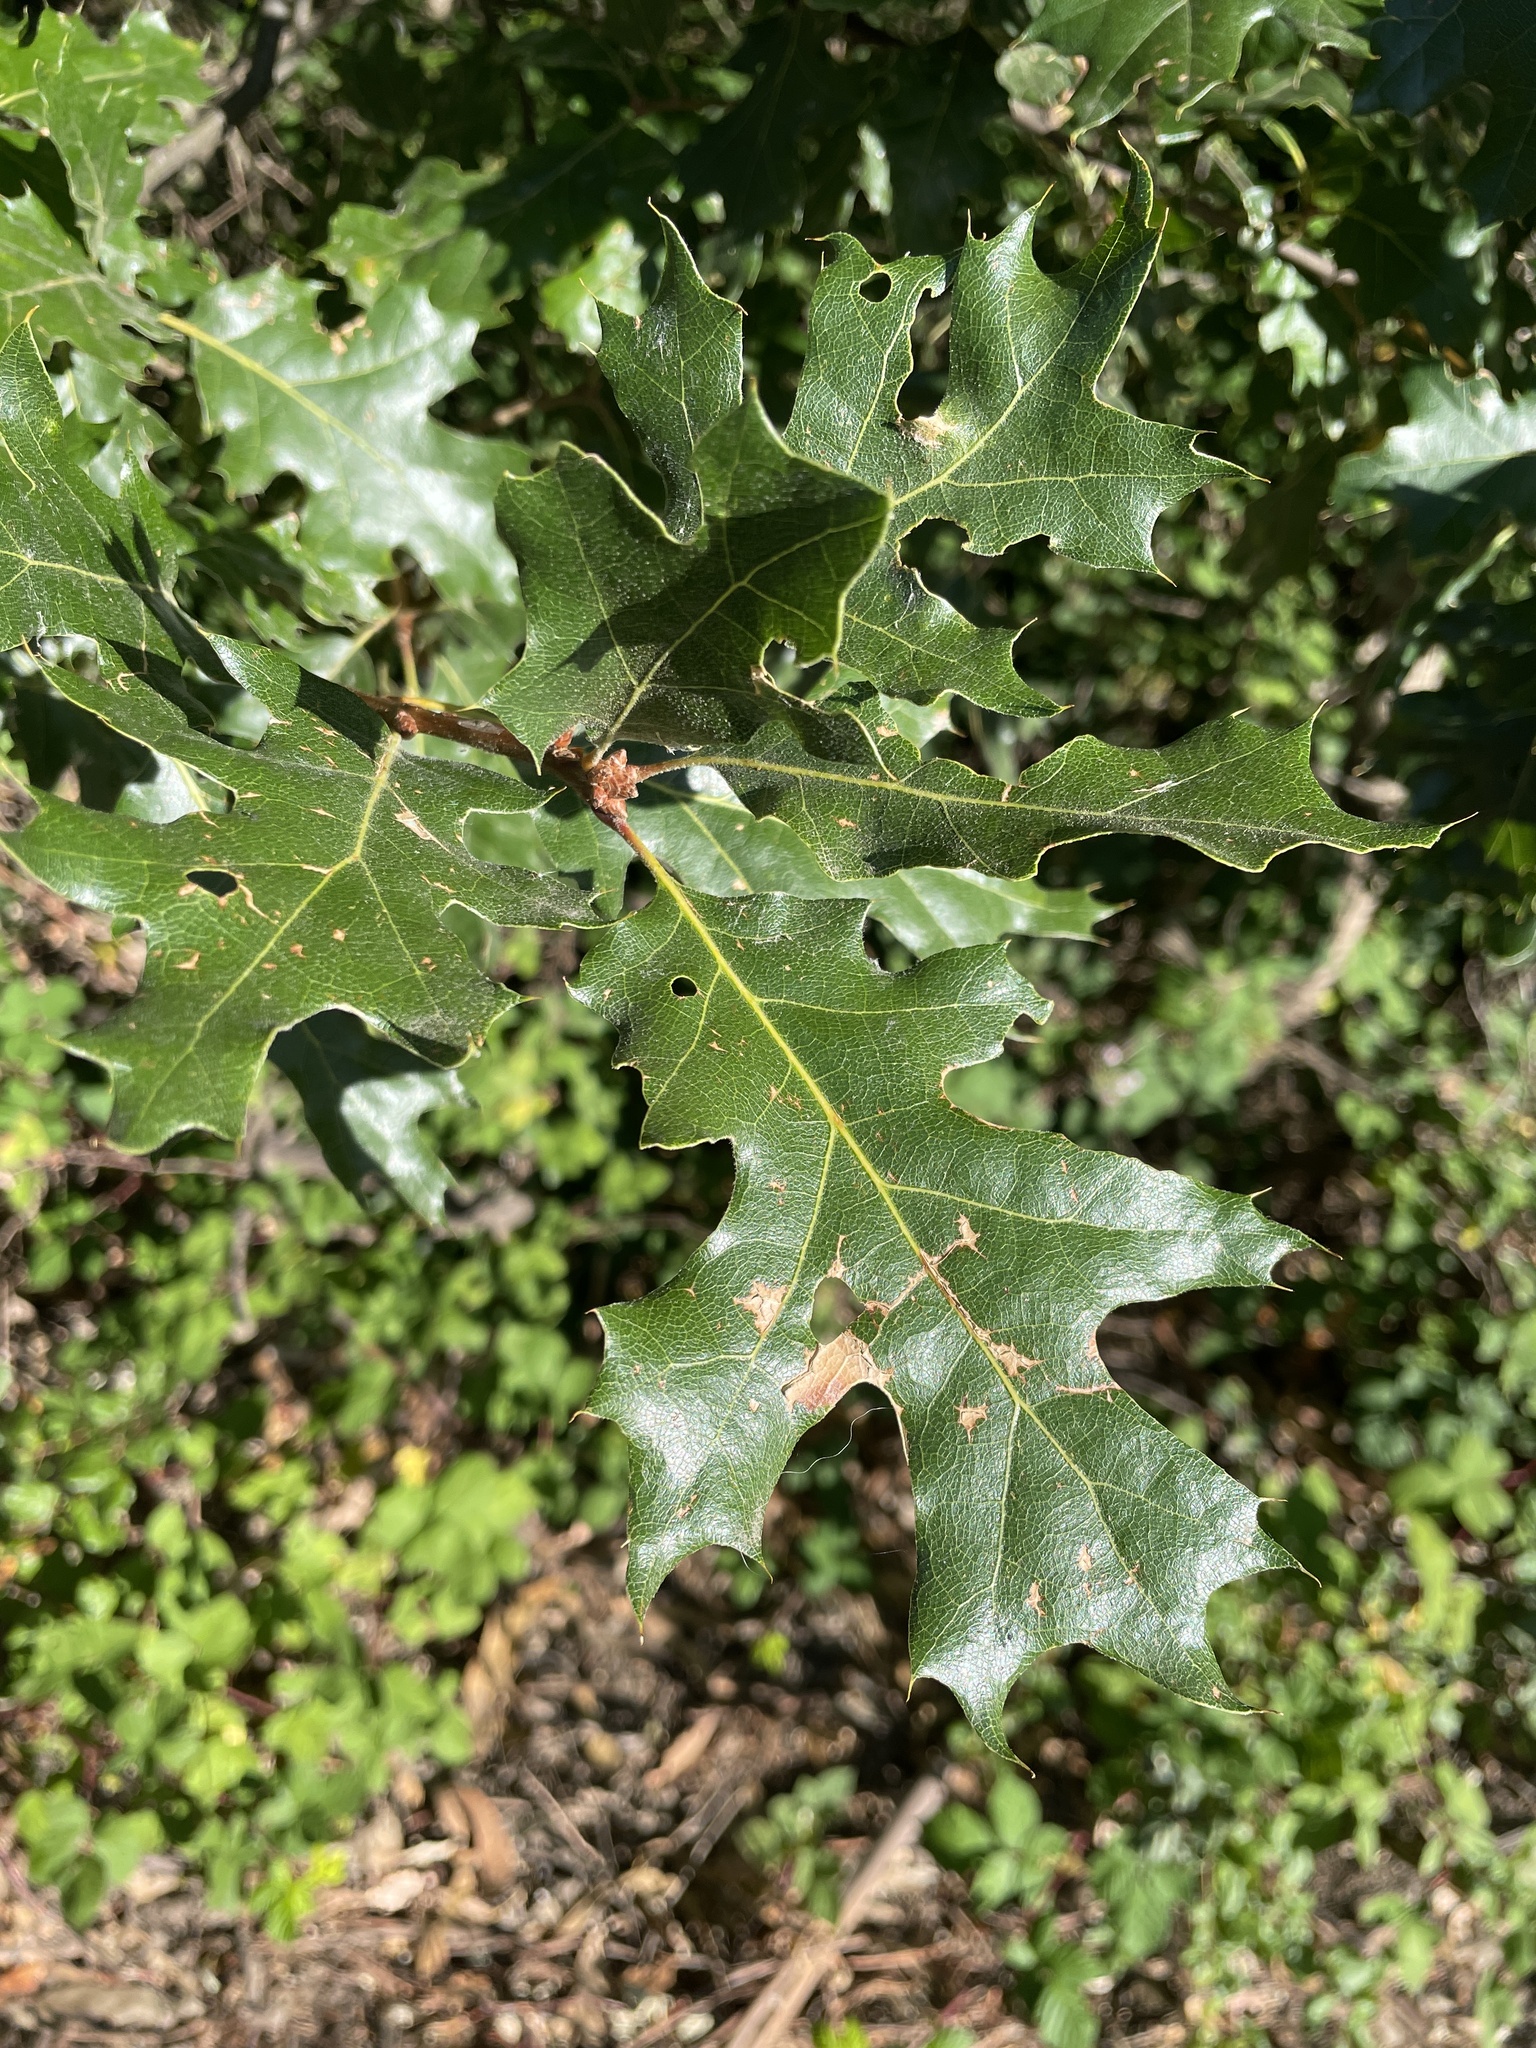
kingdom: Plantae
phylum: Tracheophyta
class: Magnoliopsida
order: Fagales
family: Fagaceae
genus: Quercus
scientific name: Quercus kelloggii
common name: California black oak
